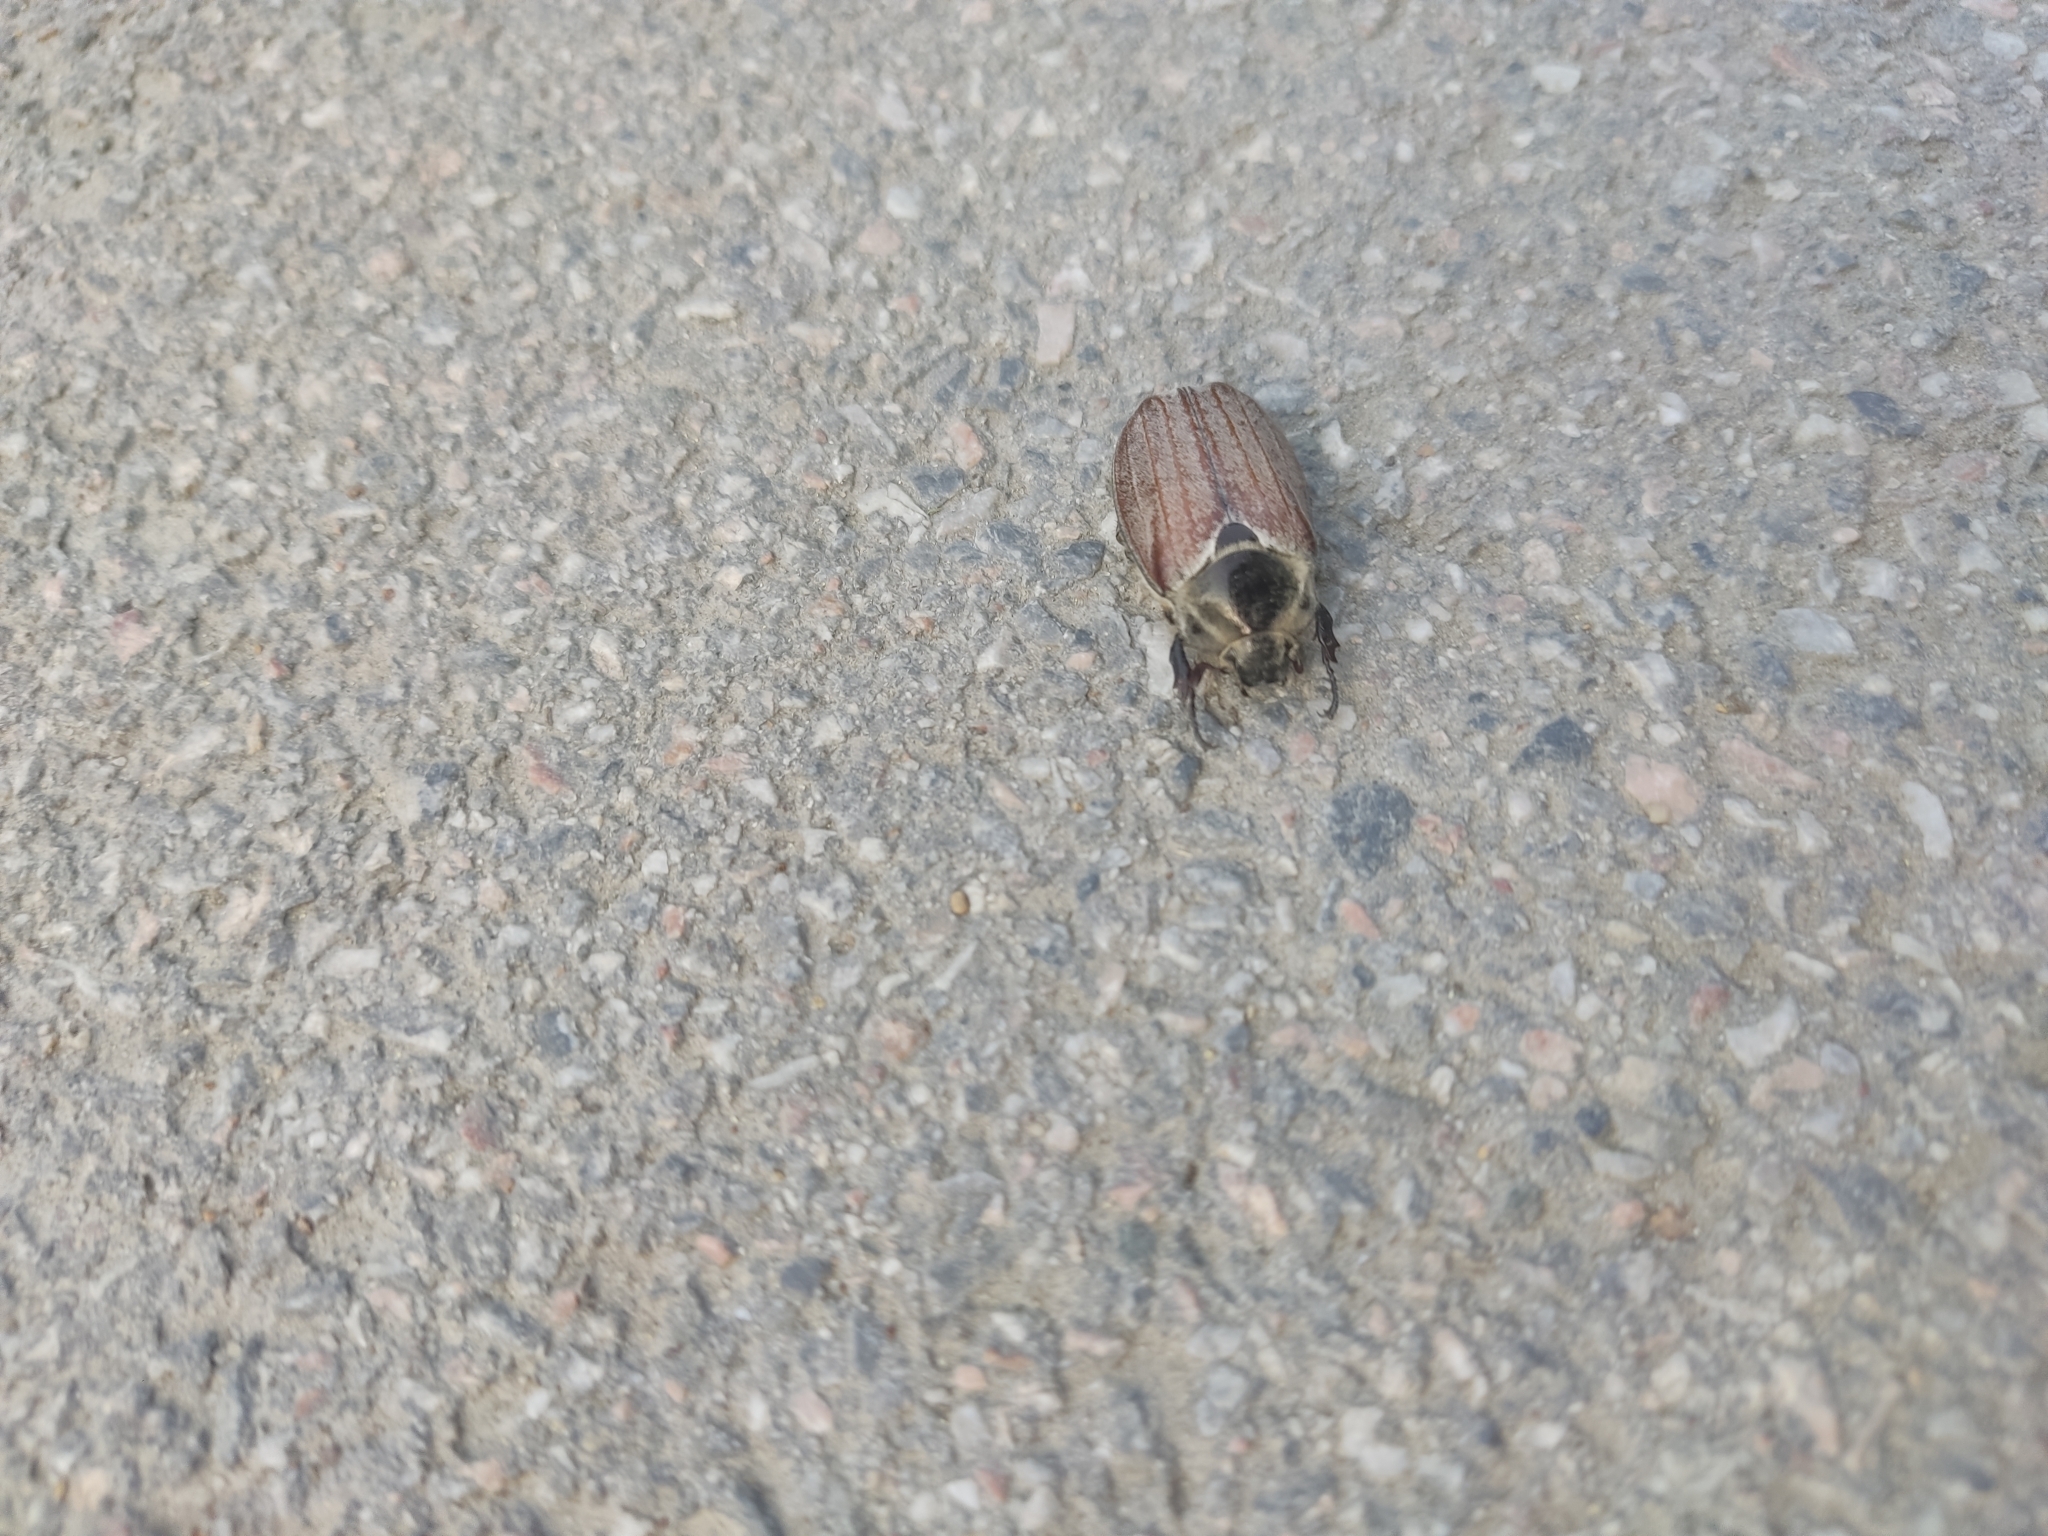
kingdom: Animalia
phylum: Arthropoda
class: Insecta
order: Coleoptera
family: Scarabaeidae
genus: Melolontha
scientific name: Melolontha hippocastani
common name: Chestnut cockchafer
